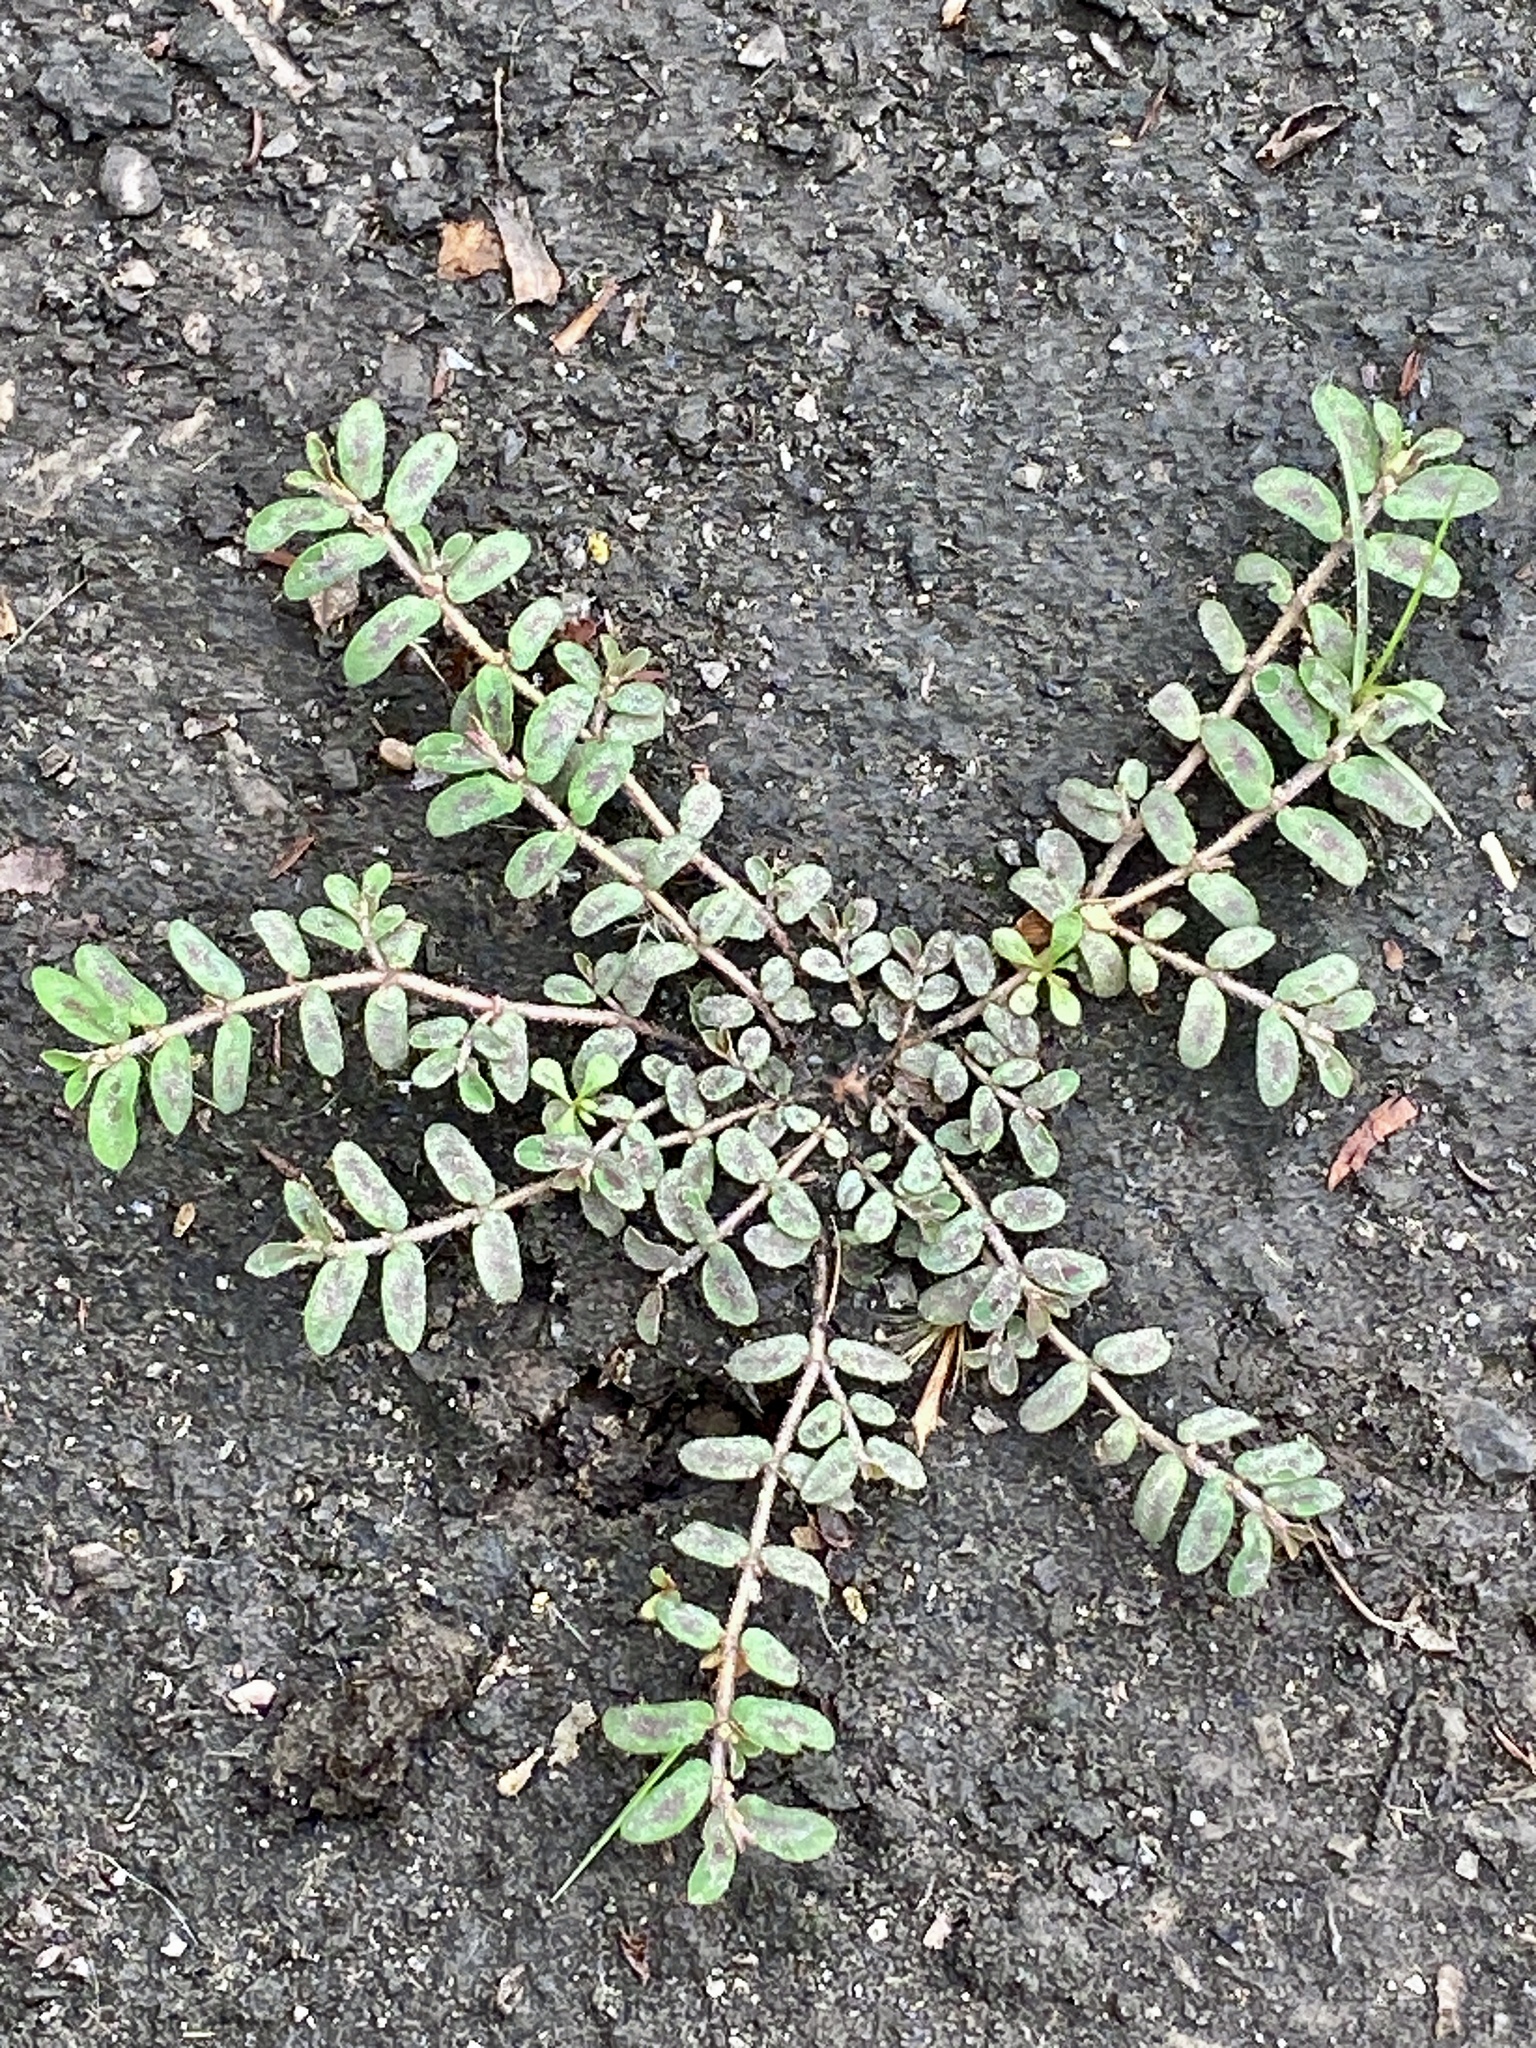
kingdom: Plantae
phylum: Tracheophyta
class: Magnoliopsida
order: Malpighiales
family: Euphorbiaceae
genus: Euphorbia
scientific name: Euphorbia maculata
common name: Spotted spurge
